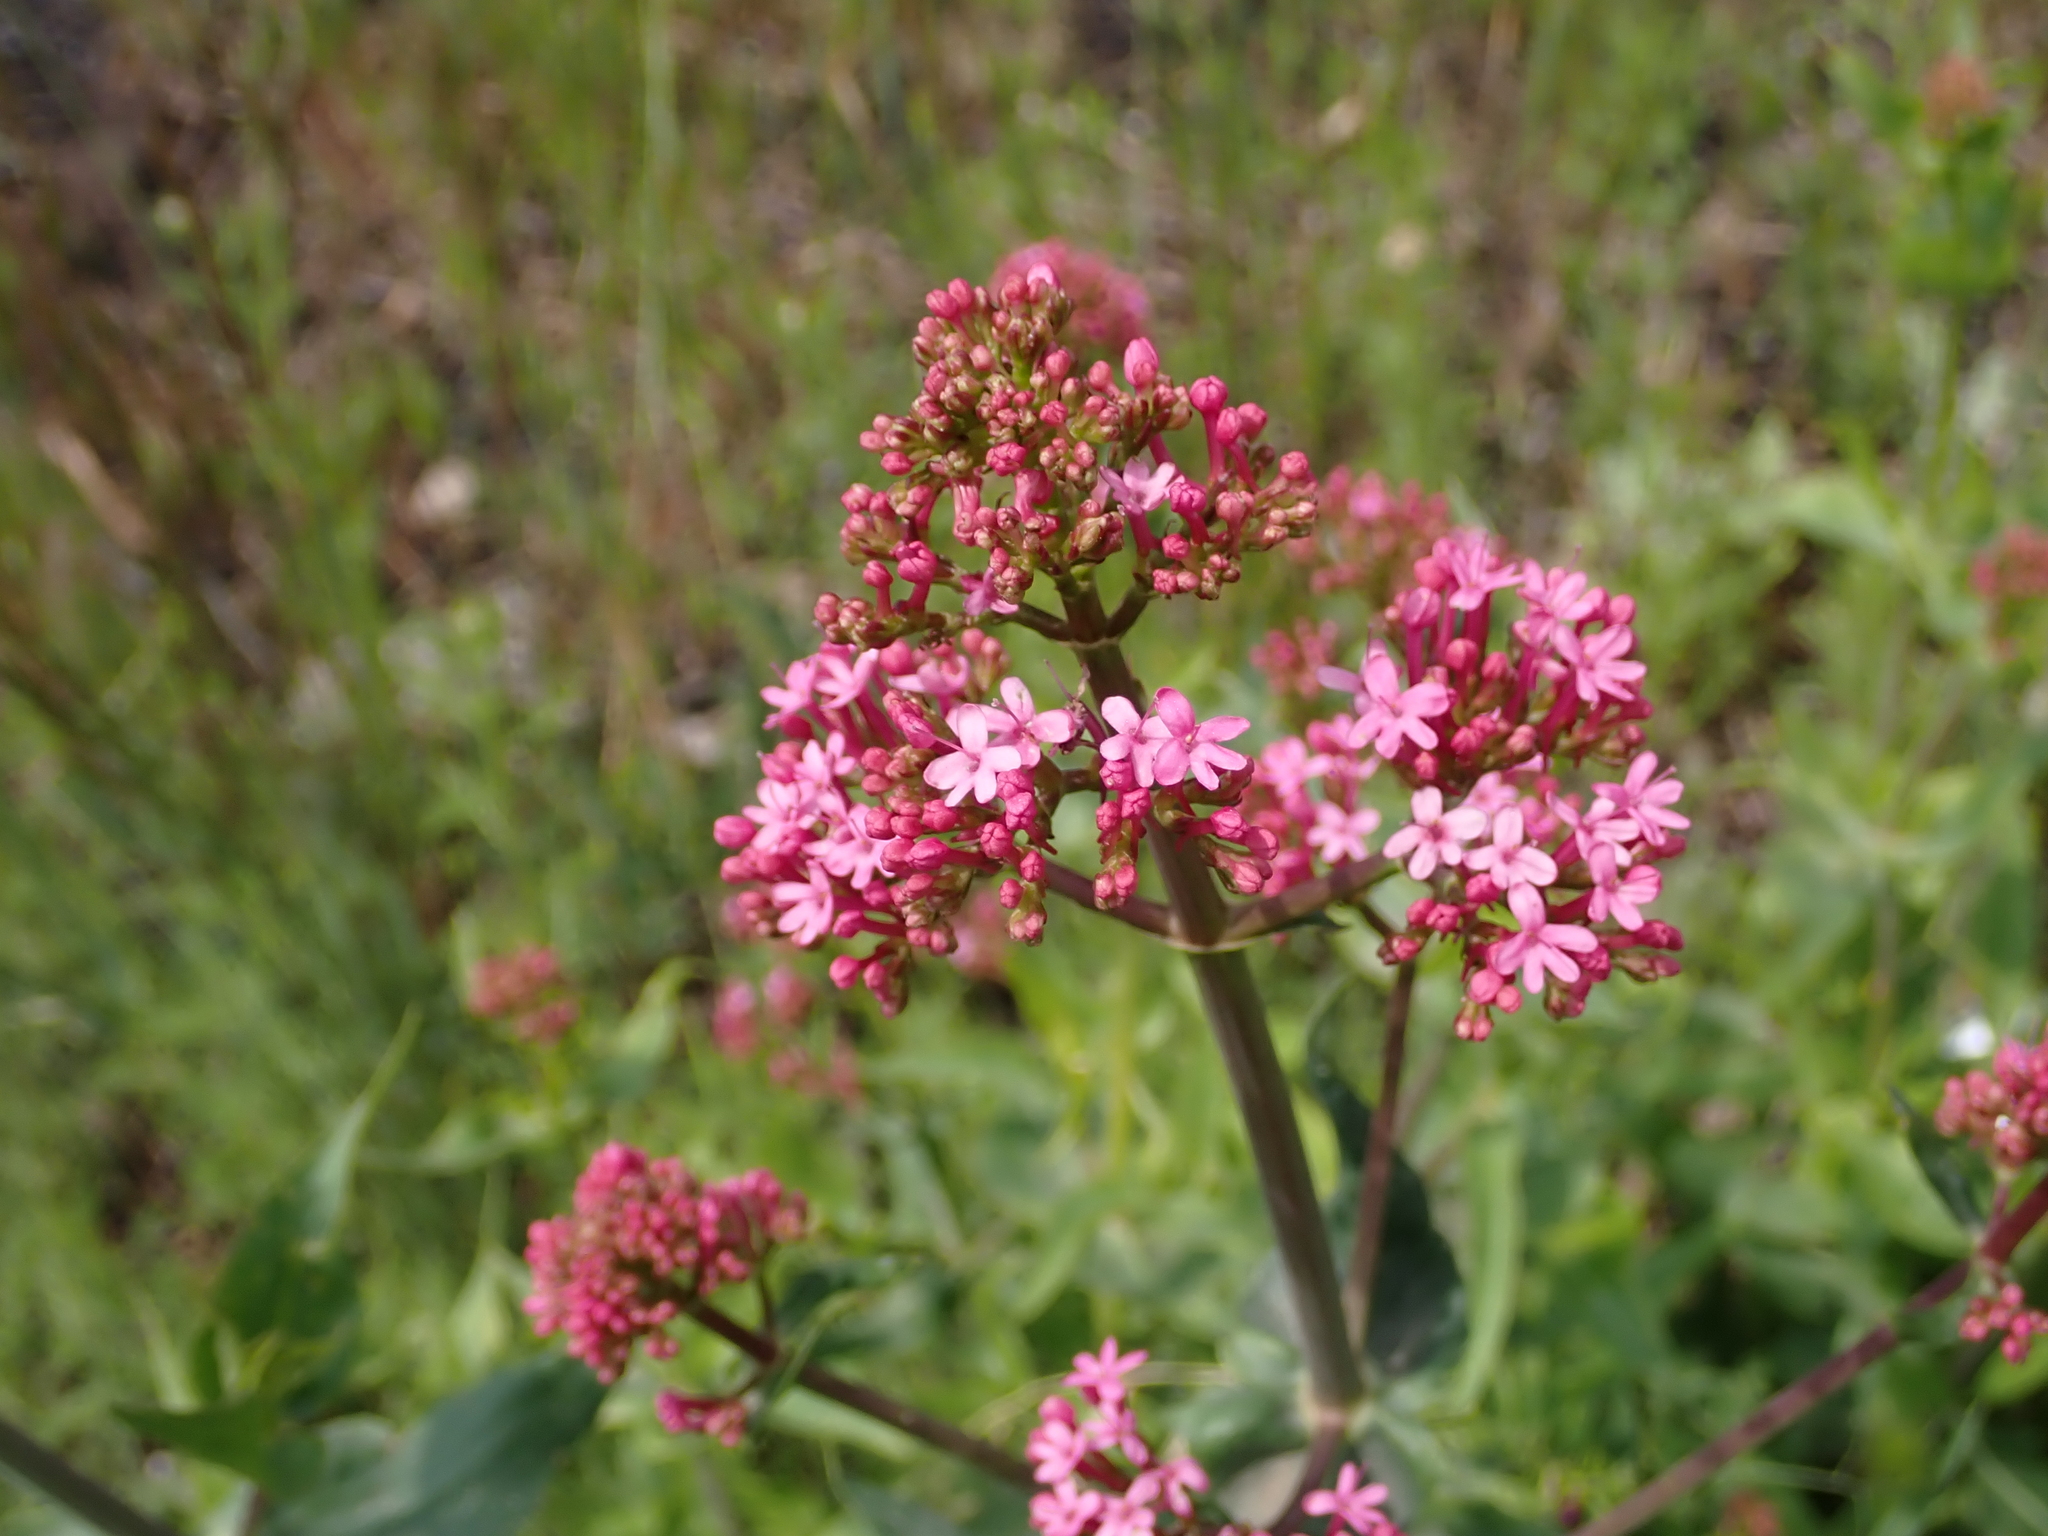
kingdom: Plantae
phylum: Tracheophyta
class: Magnoliopsida
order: Dipsacales
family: Caprifoliaceae
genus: Centranthus
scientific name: Centranthus ruber
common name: Red valerian
